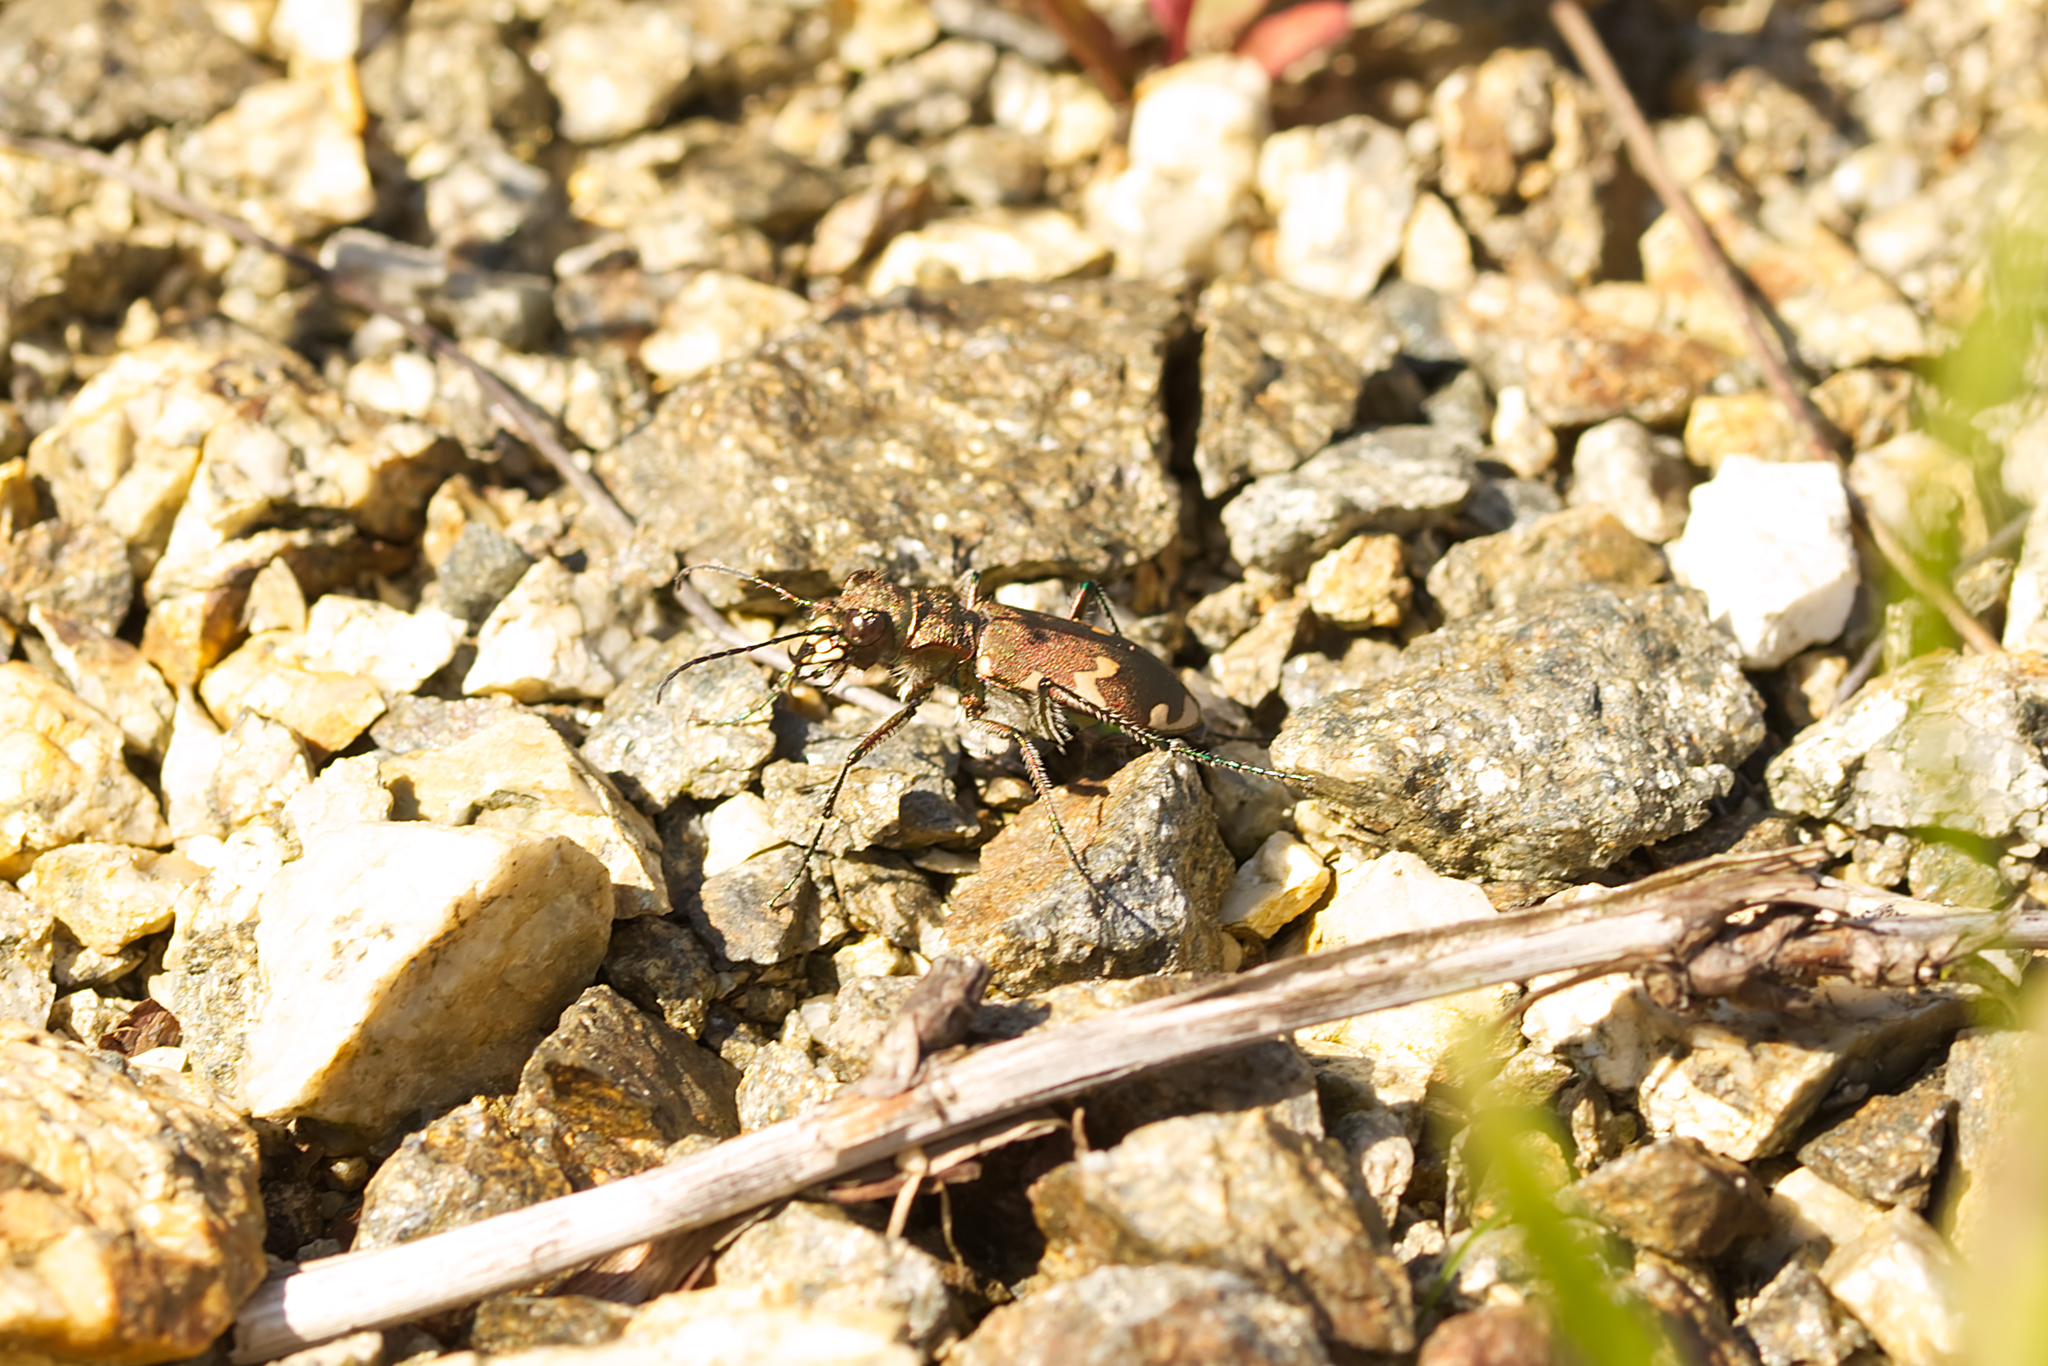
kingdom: Animalia
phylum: Arthropoda
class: Insecta
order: Coleoptera
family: Carabidae
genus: Cicindela
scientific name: Cicindela sylvicola
